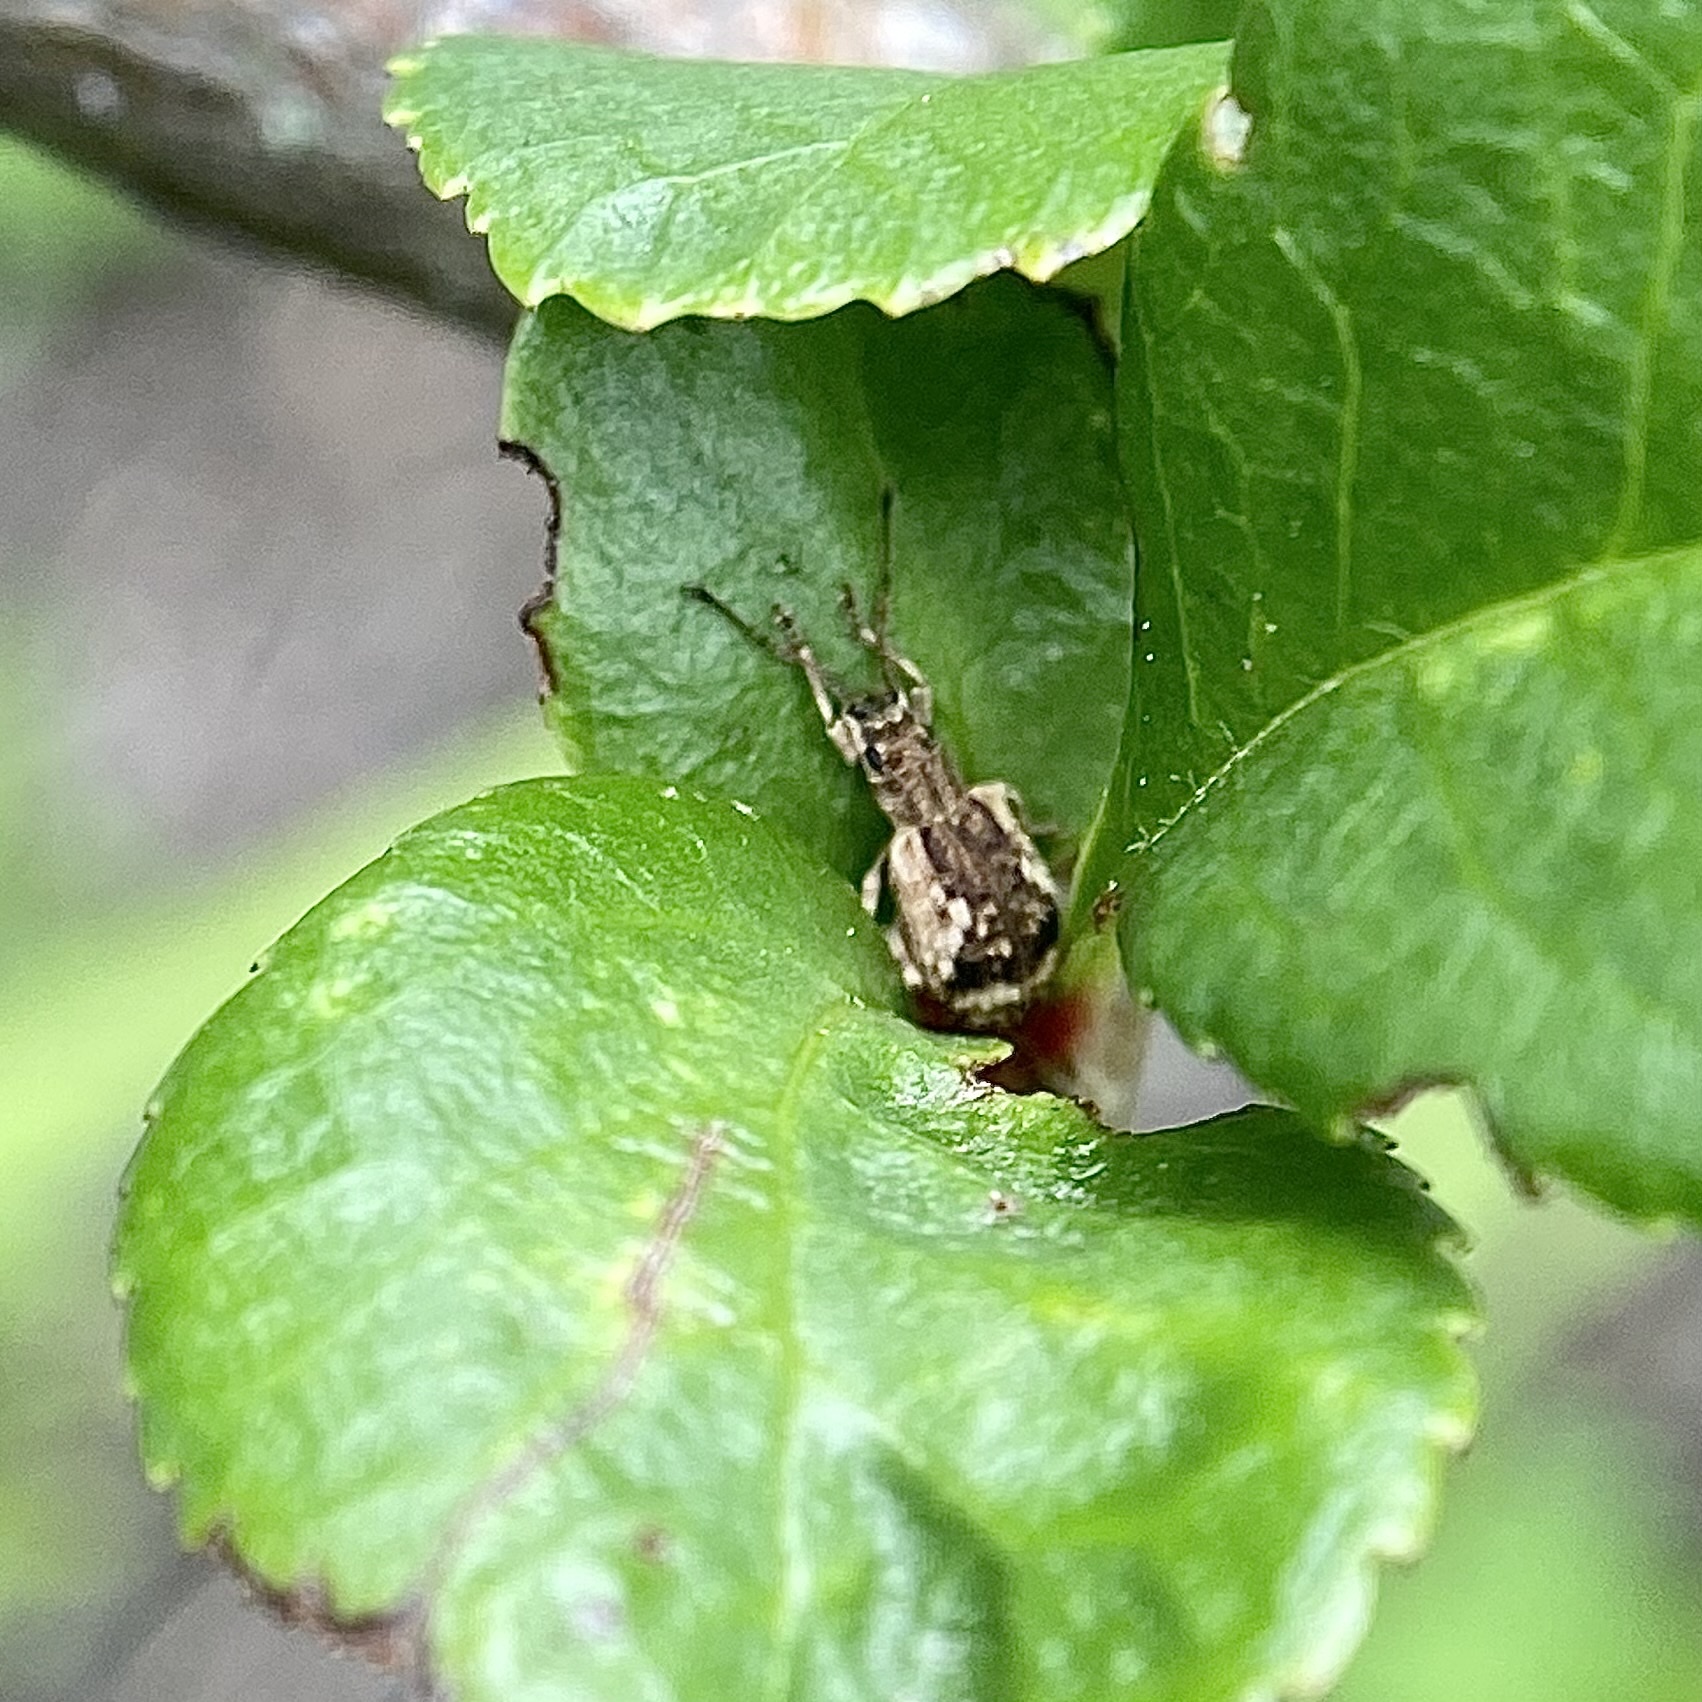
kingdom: Animalia
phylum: Arthropoda
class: Insecta
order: Coleoptera
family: Curculionidae
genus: Pseudoedophrys
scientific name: Pseudoedophrys hilleri
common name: Weevil
